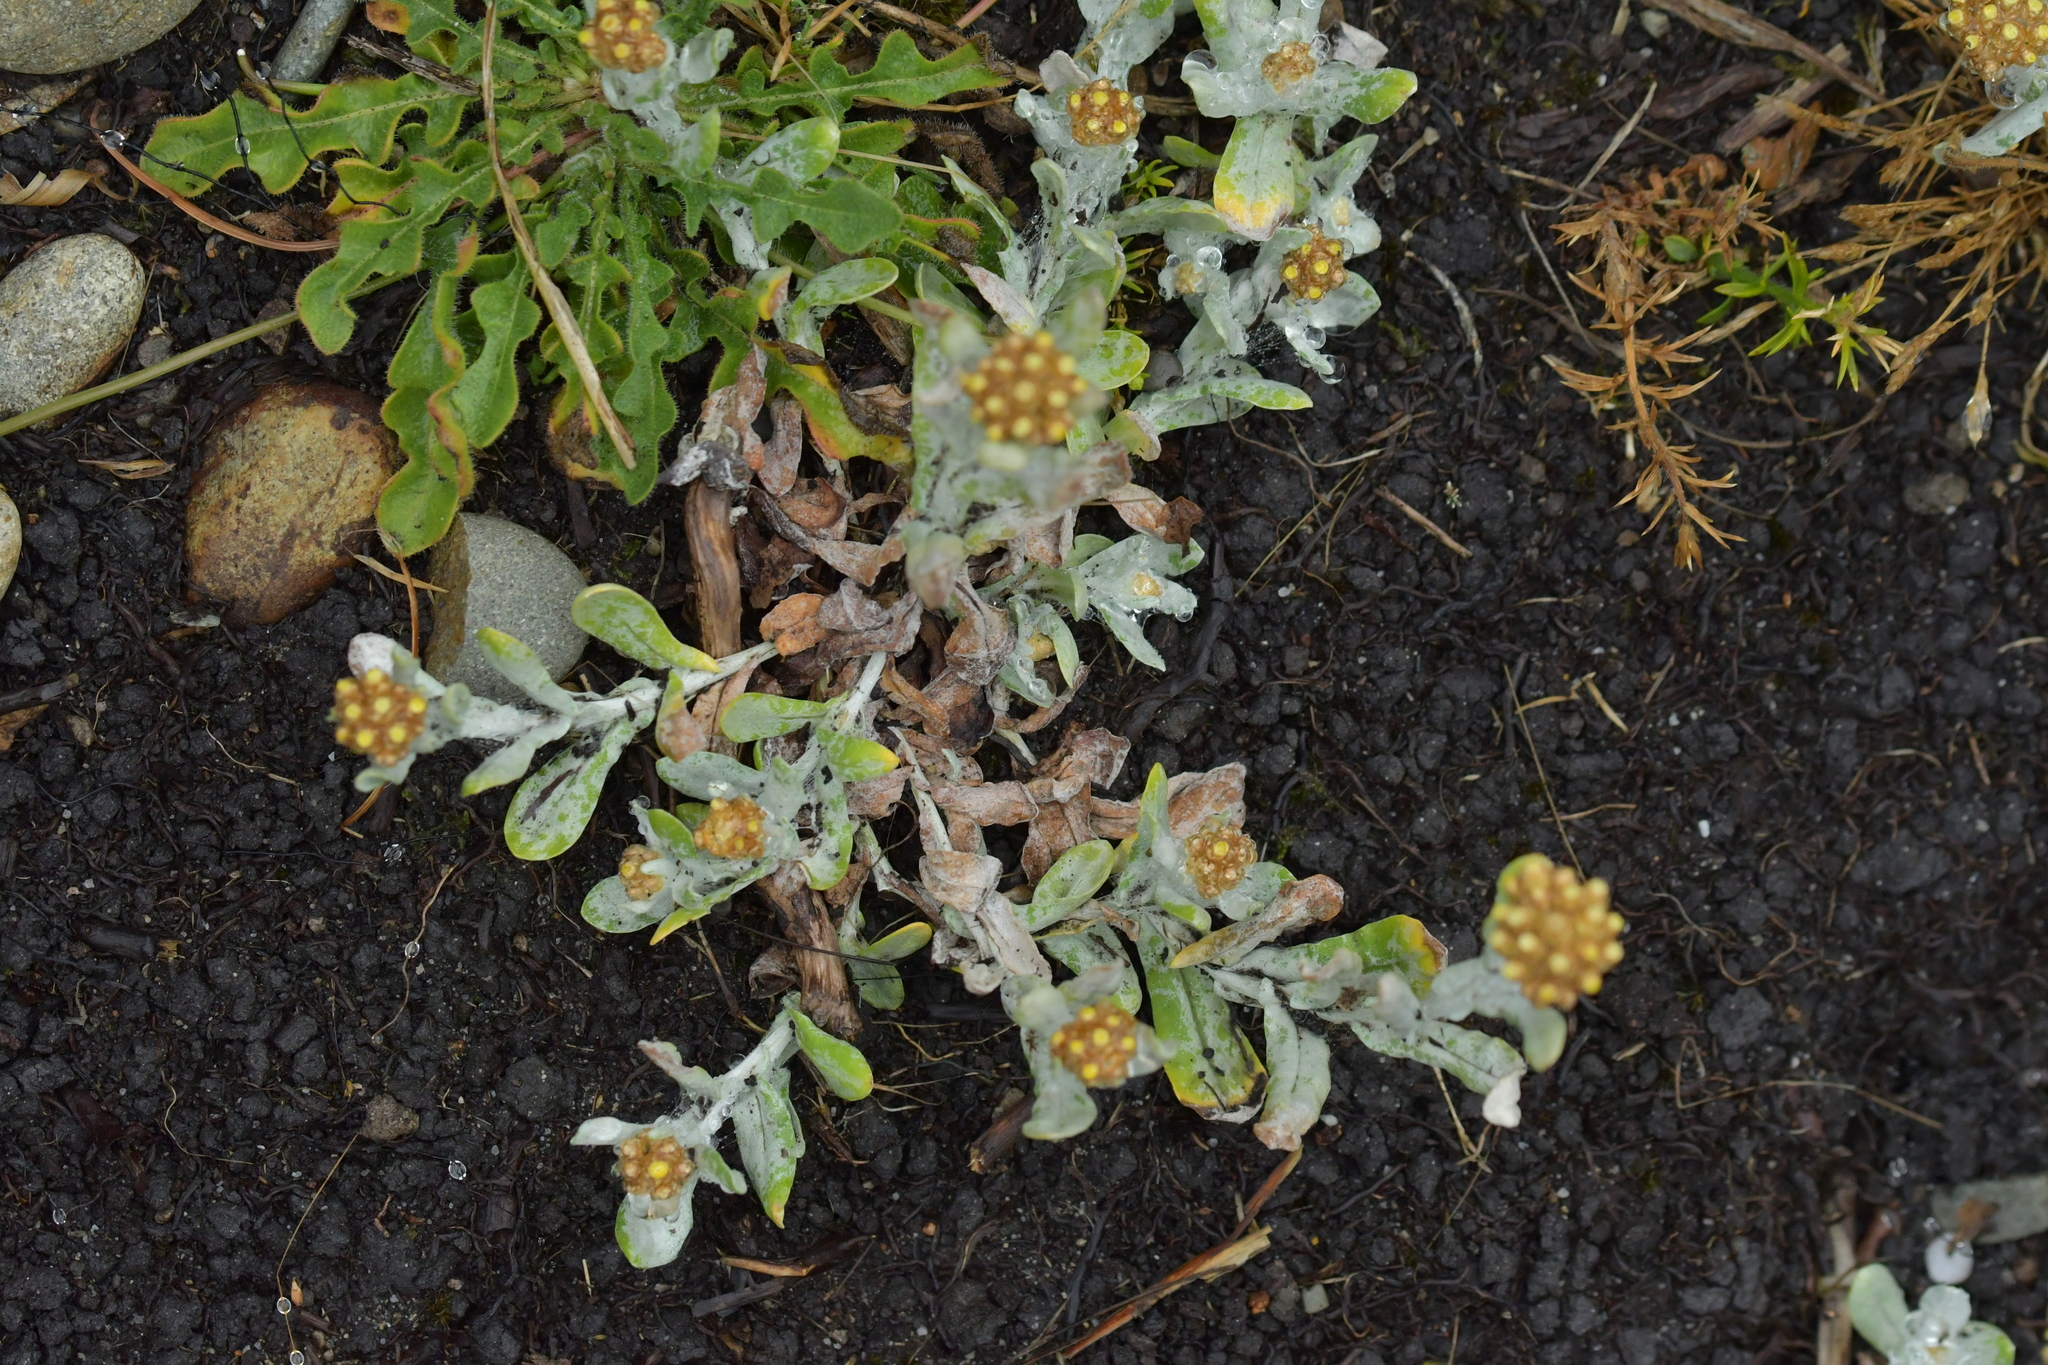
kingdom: Plantae
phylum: Tracheophyta
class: Magnoliopsida
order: Asterales
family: Asteraceae
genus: Helichrysum
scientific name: Helichrysum luteoalbum
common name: Daisy
